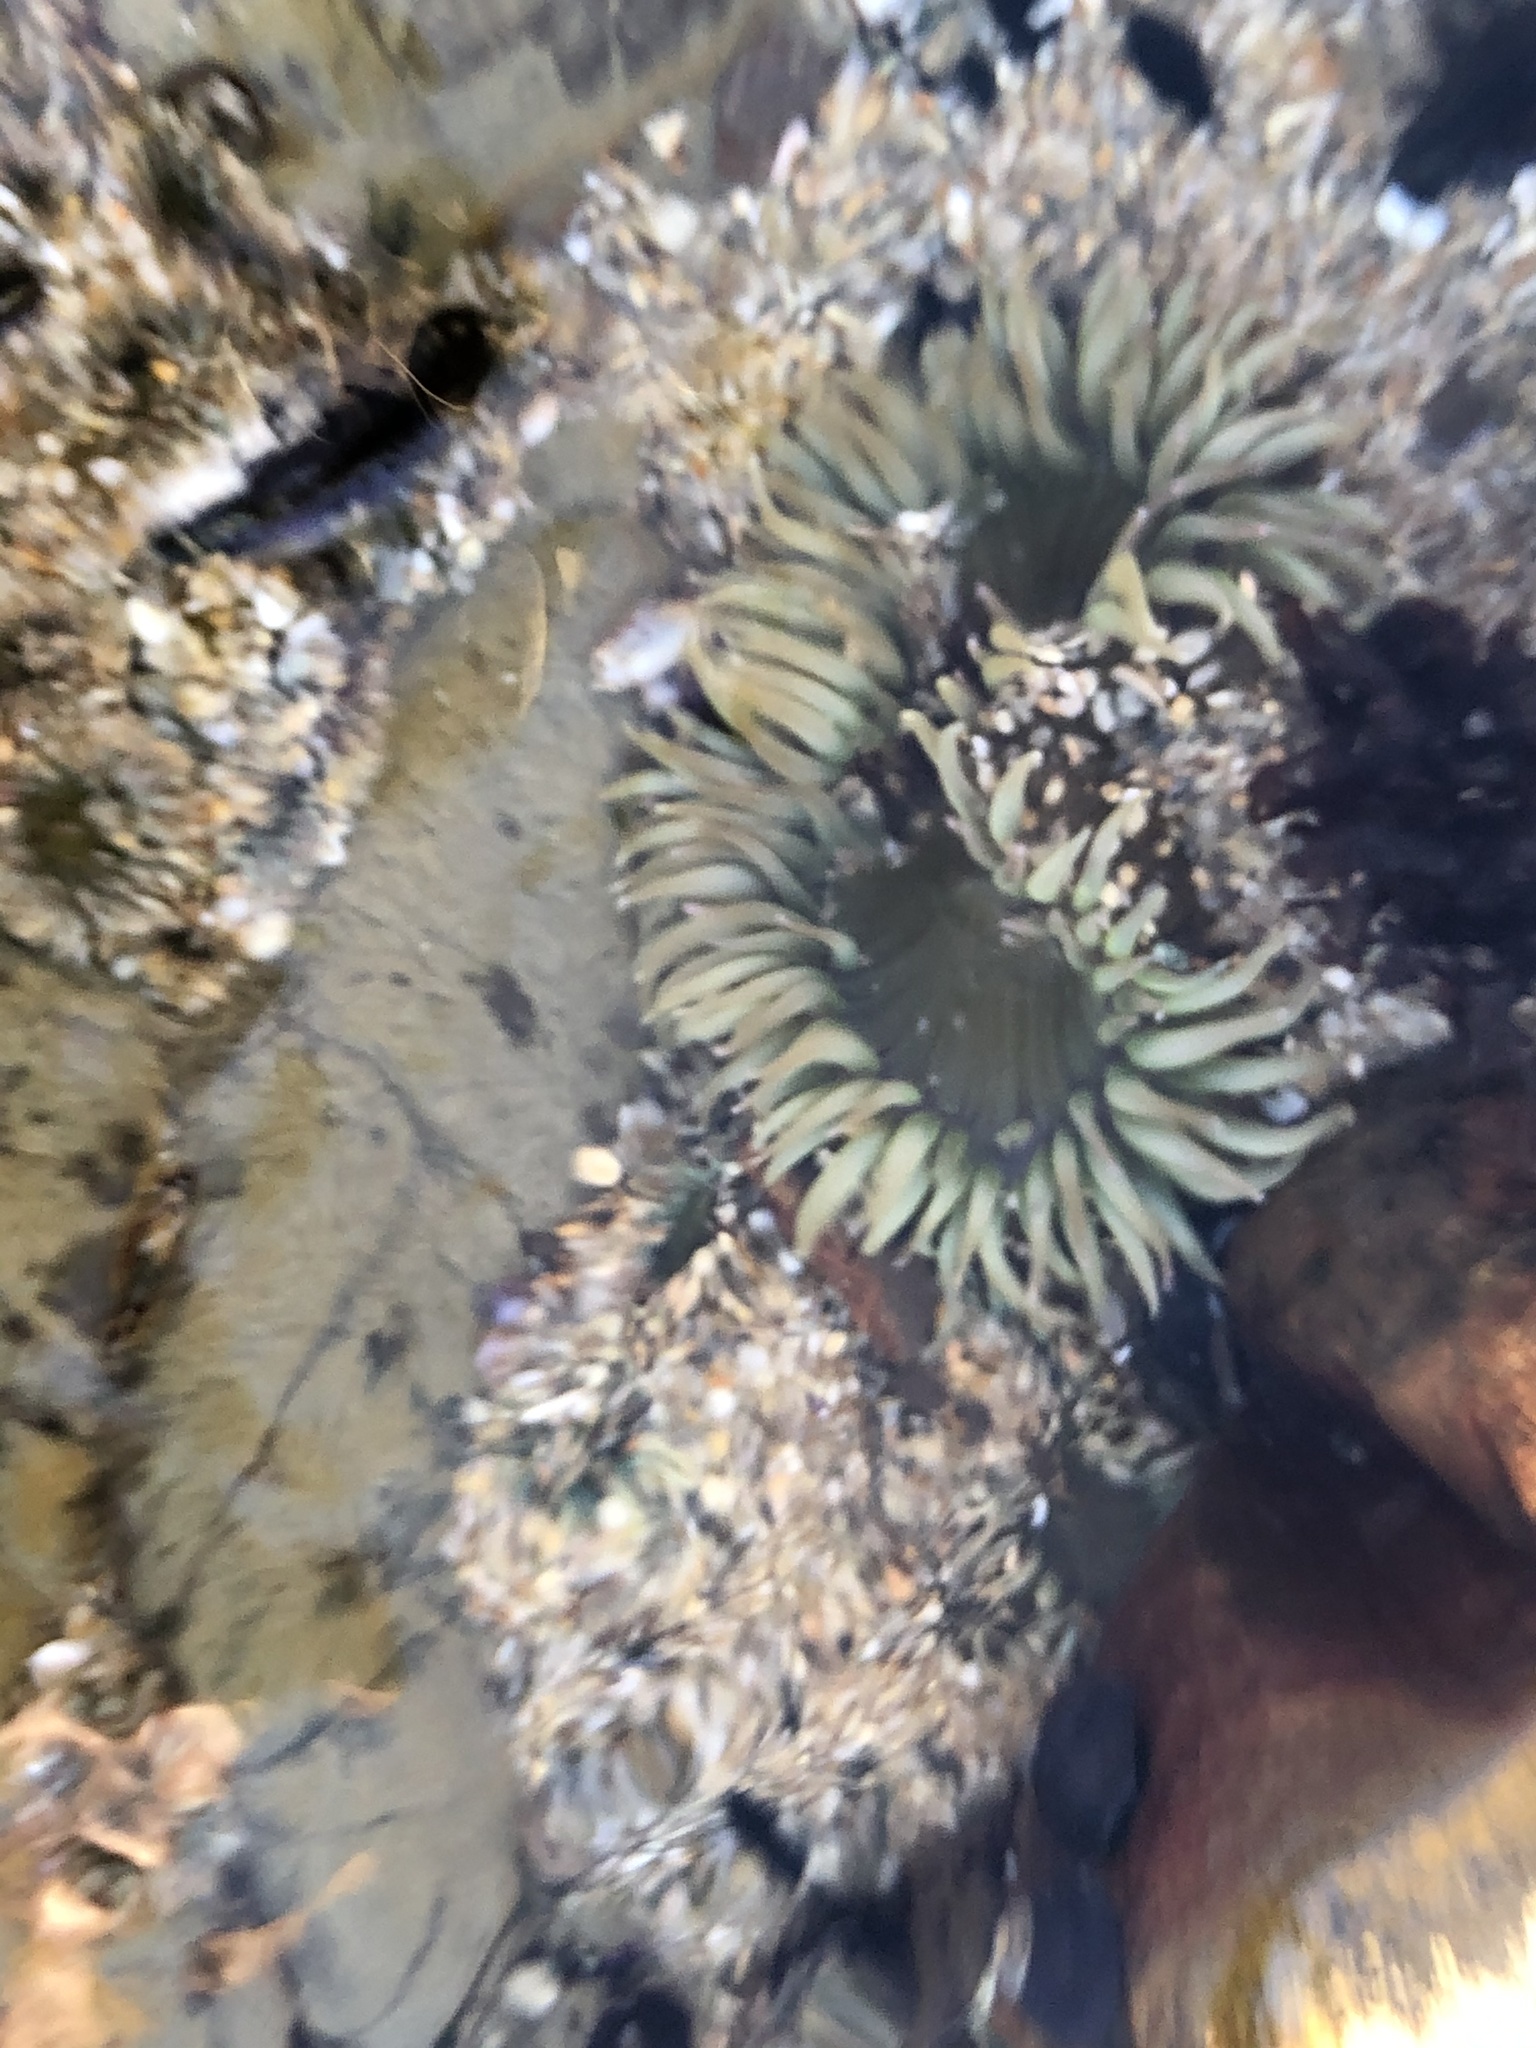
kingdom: Animalia
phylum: Cnidaria
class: Anthozoa
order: Actiniaria
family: Actiniidae
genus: Anthopleura
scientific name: Anthopleura sola
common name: Sun anemone
